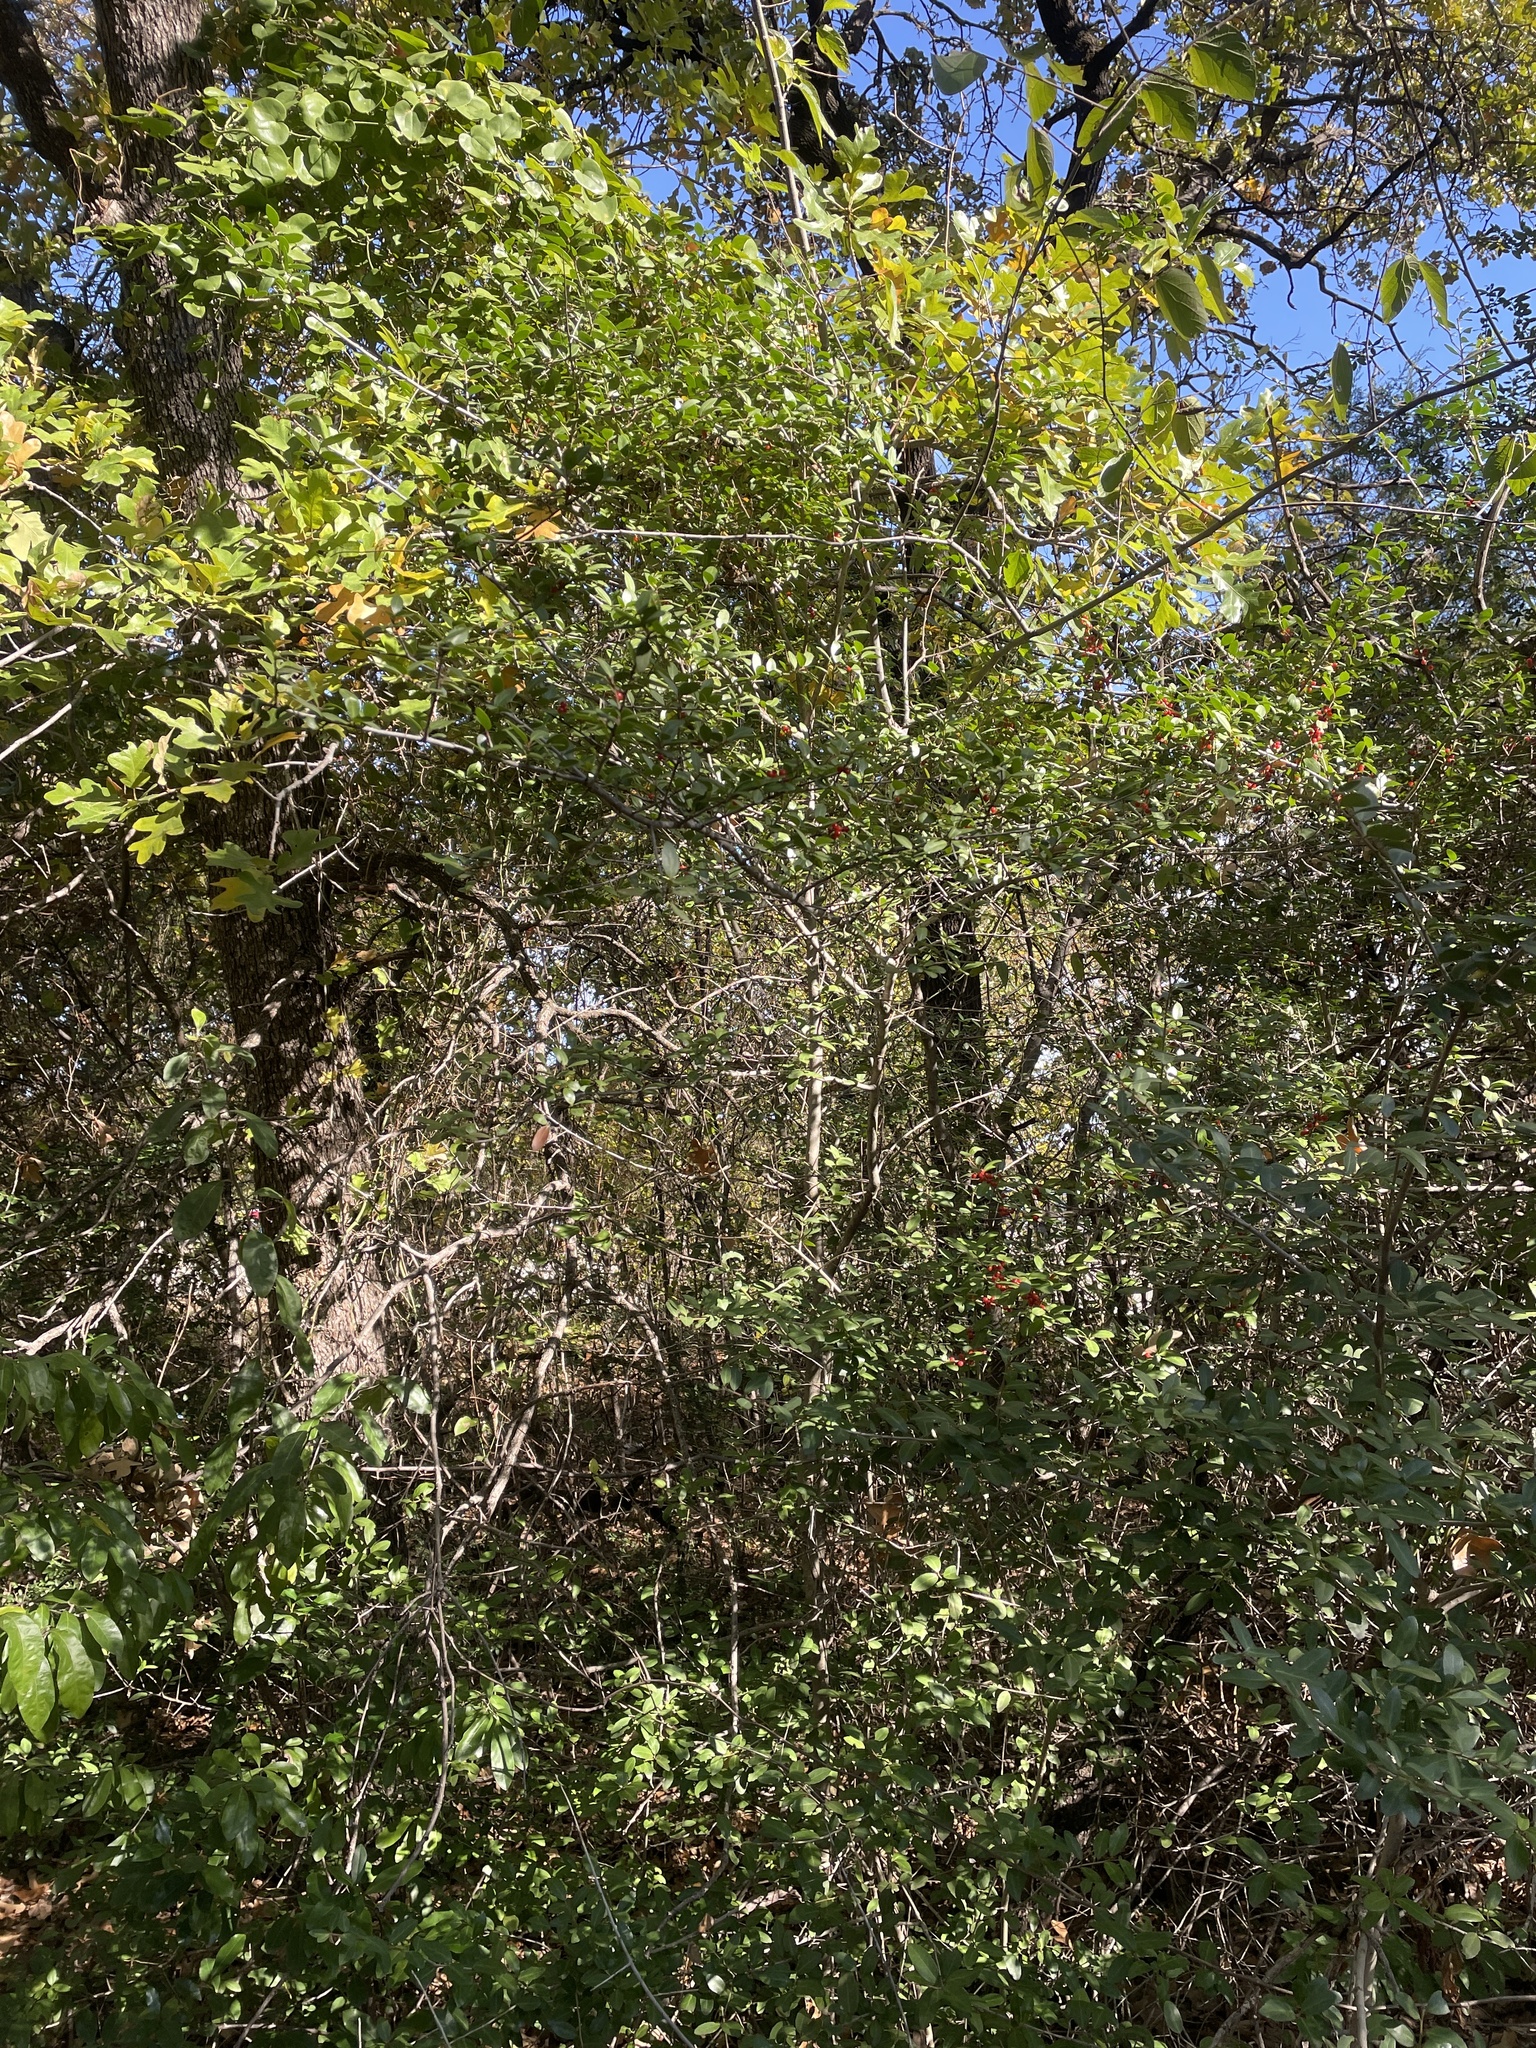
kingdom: Plantae
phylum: Tracheophyta
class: Magnoliopsida
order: Aquifoliales
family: Aquifoliaceae
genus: Ilex
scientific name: Ilex vomitoria
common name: Yaupon holly
